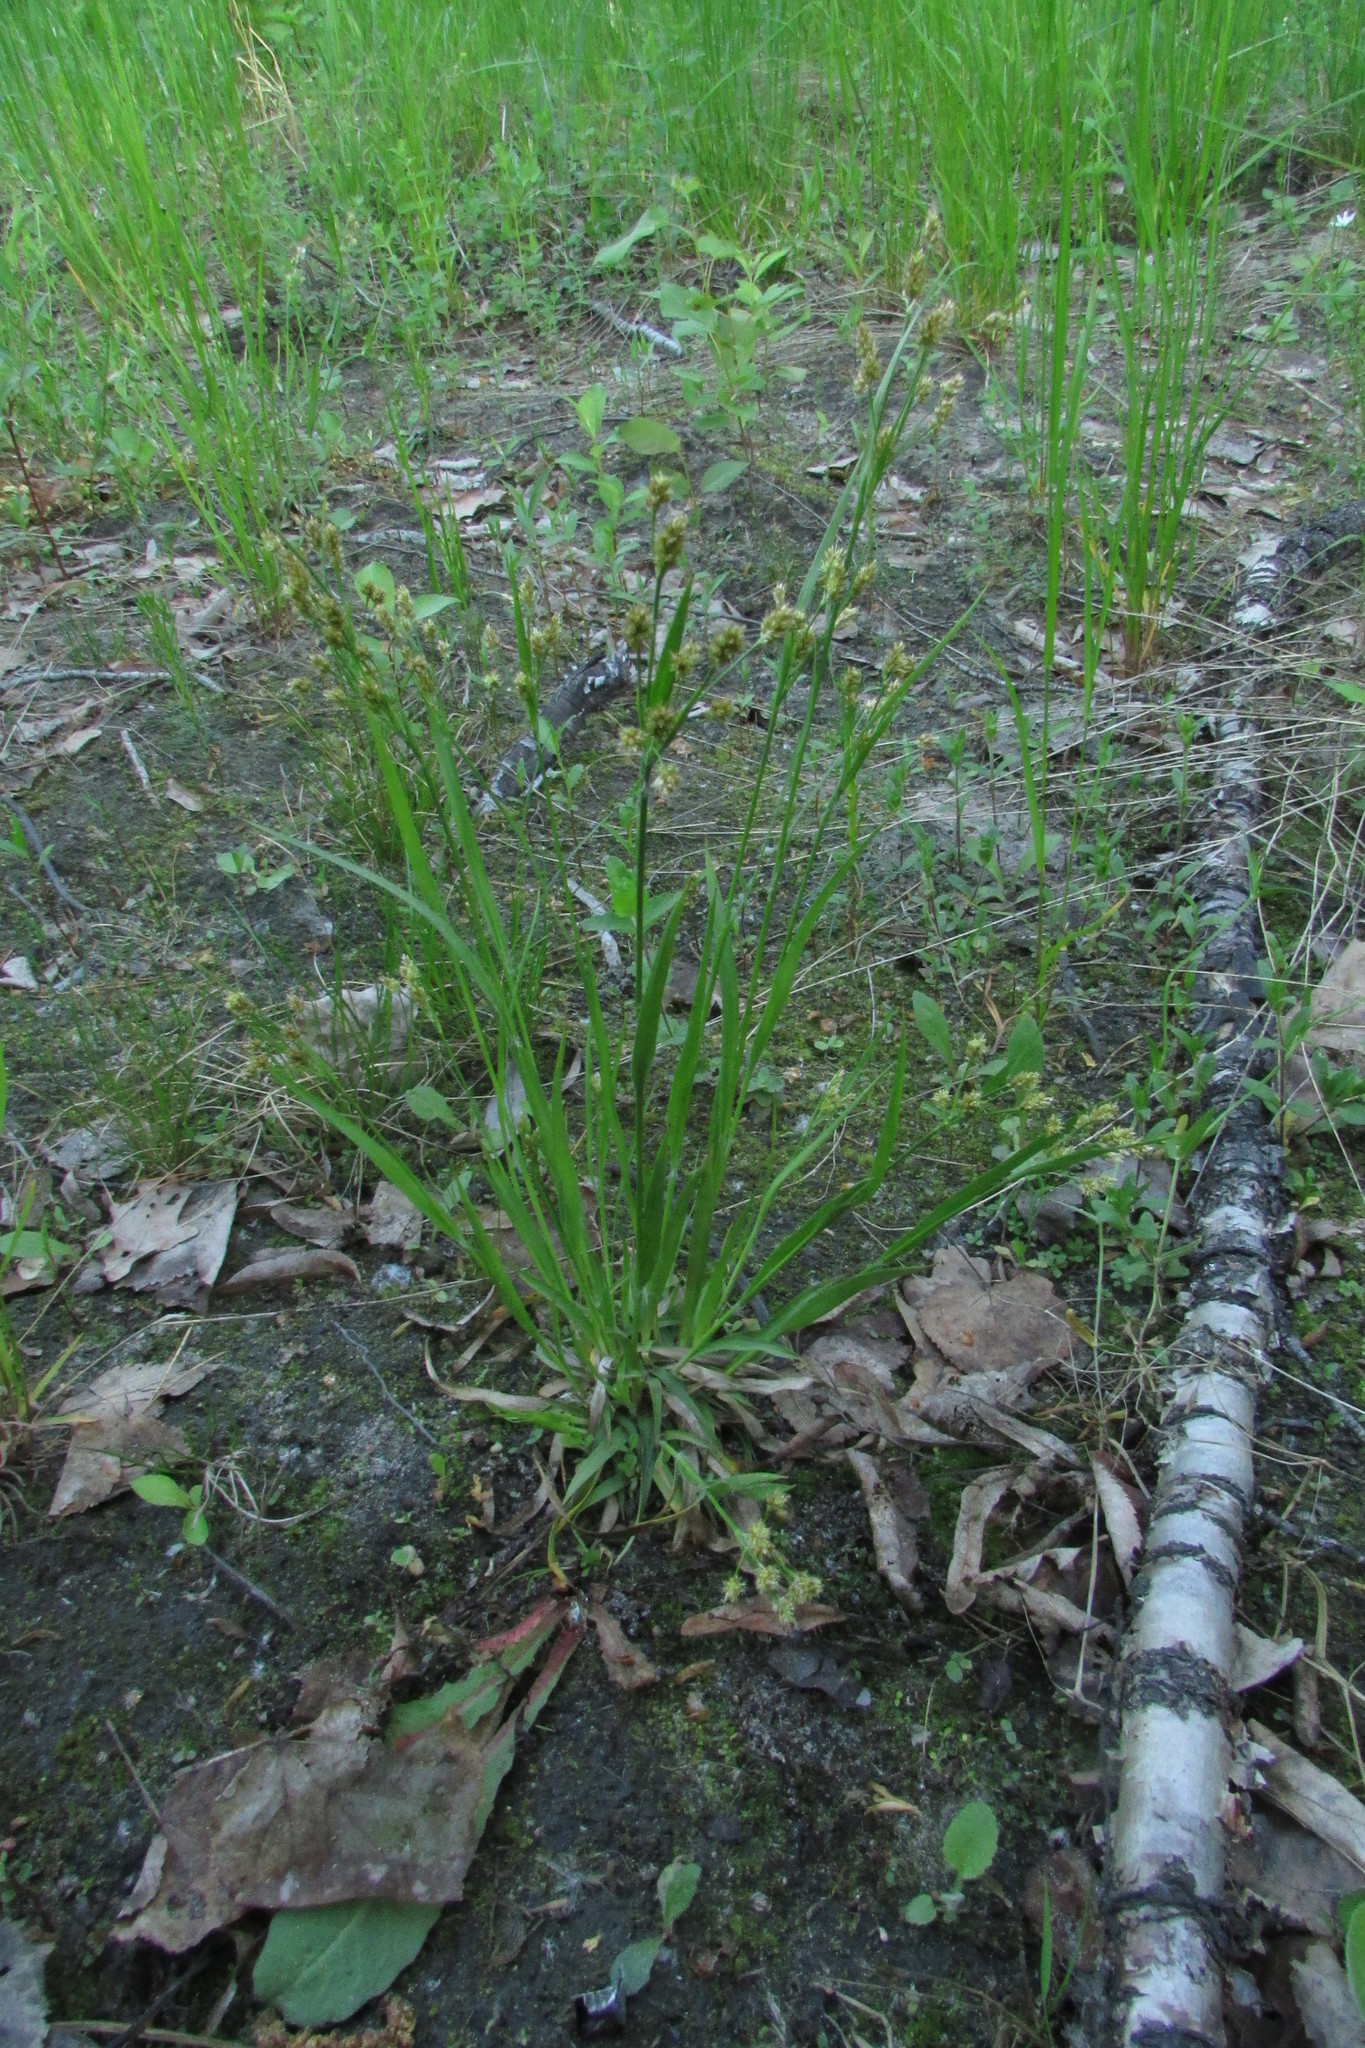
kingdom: Plantae
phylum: Tracheophyta
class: Liliopsida
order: Poales
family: Juncaceae
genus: Luzula
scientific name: Luzula pallescens
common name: Fen wood-rush
